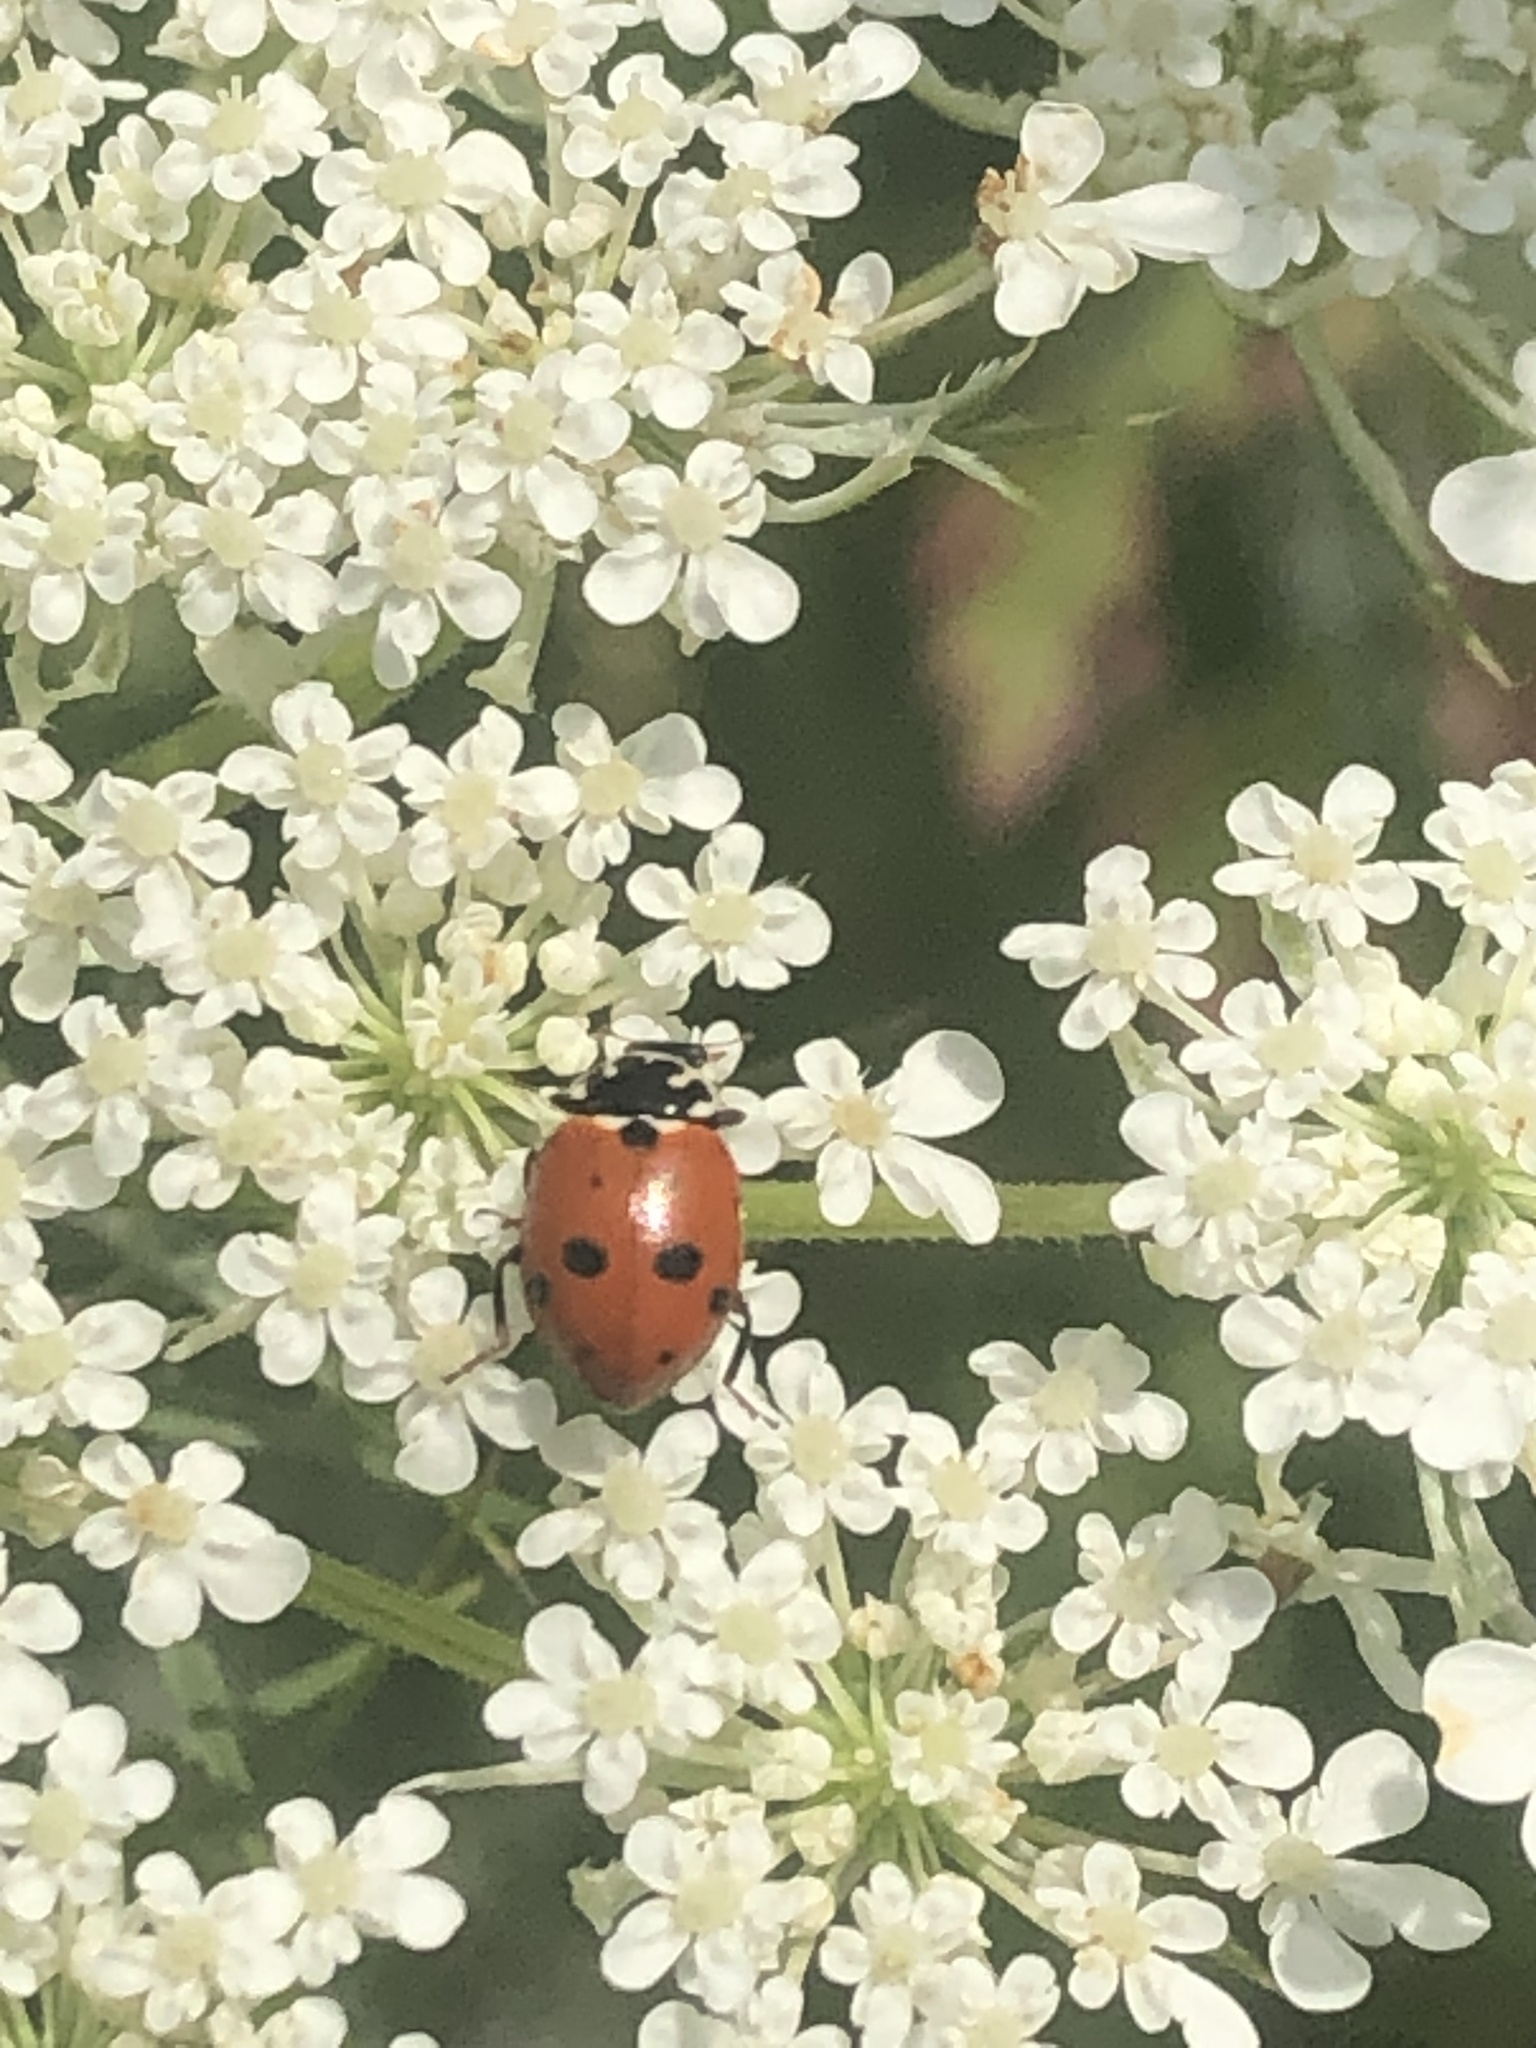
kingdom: Animalia
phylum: Arthropoda
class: Insecta
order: Coleoptera
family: Coccinellidae
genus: Hippodamia
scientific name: Hippodamia variegata
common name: Ladybird beetle
